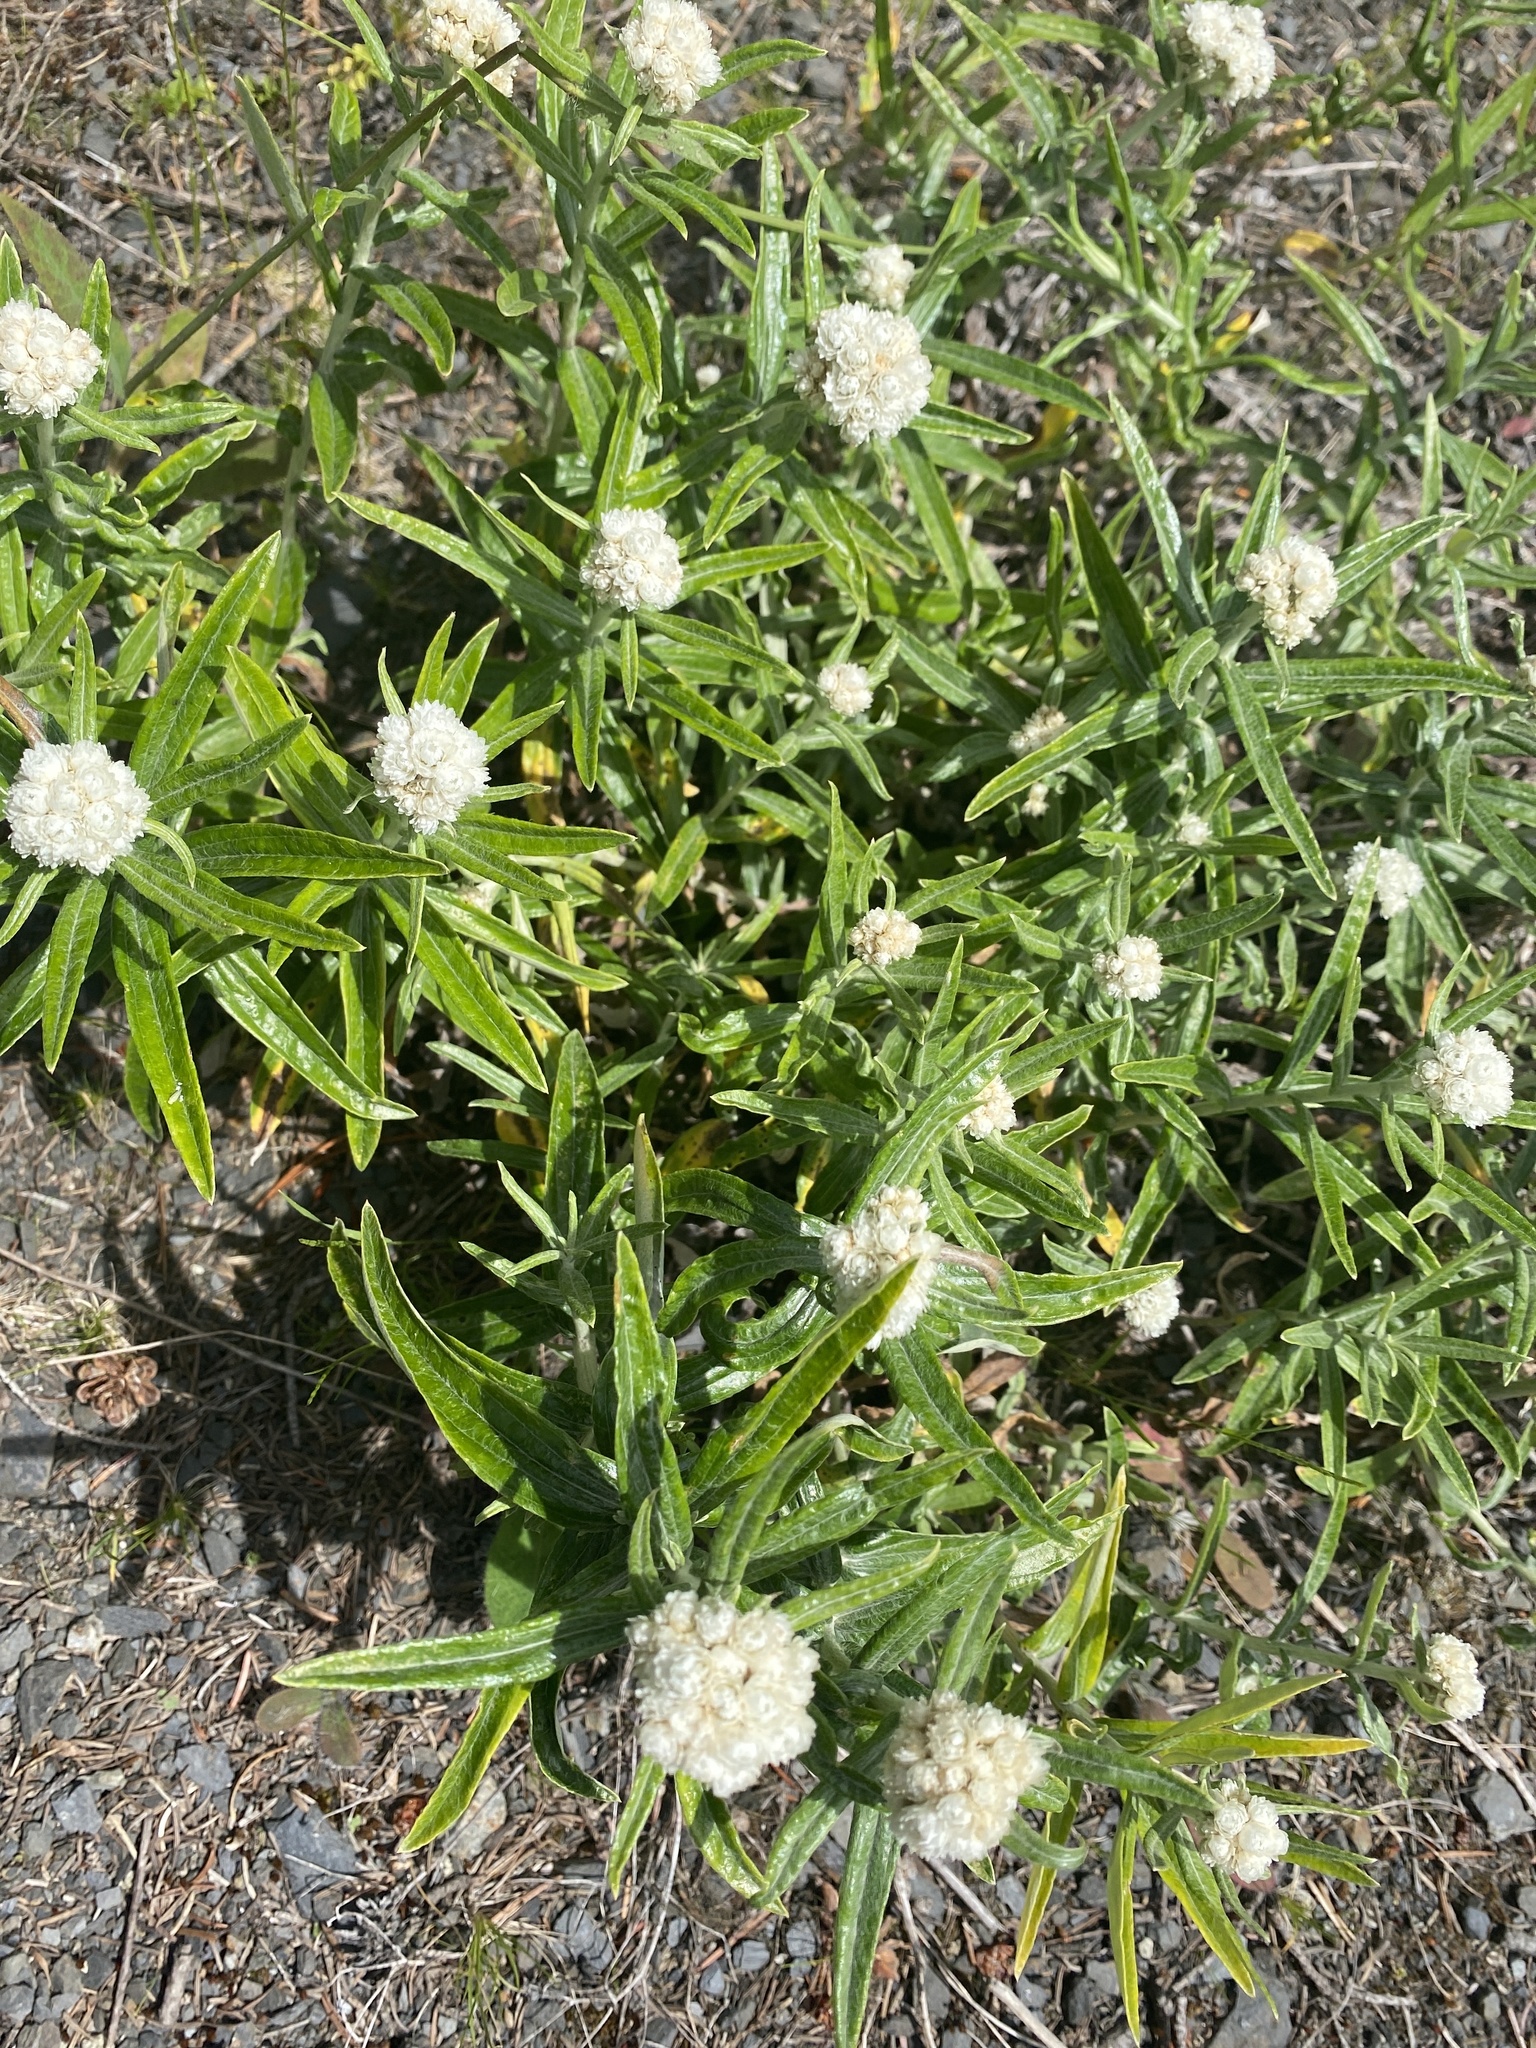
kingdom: Plantae
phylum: Tracheophyta
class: Magnoliopsida
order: Asterales
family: Asteraceae
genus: Anaphalis
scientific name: Anaphalis margaritacea
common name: Pearly everlasting
